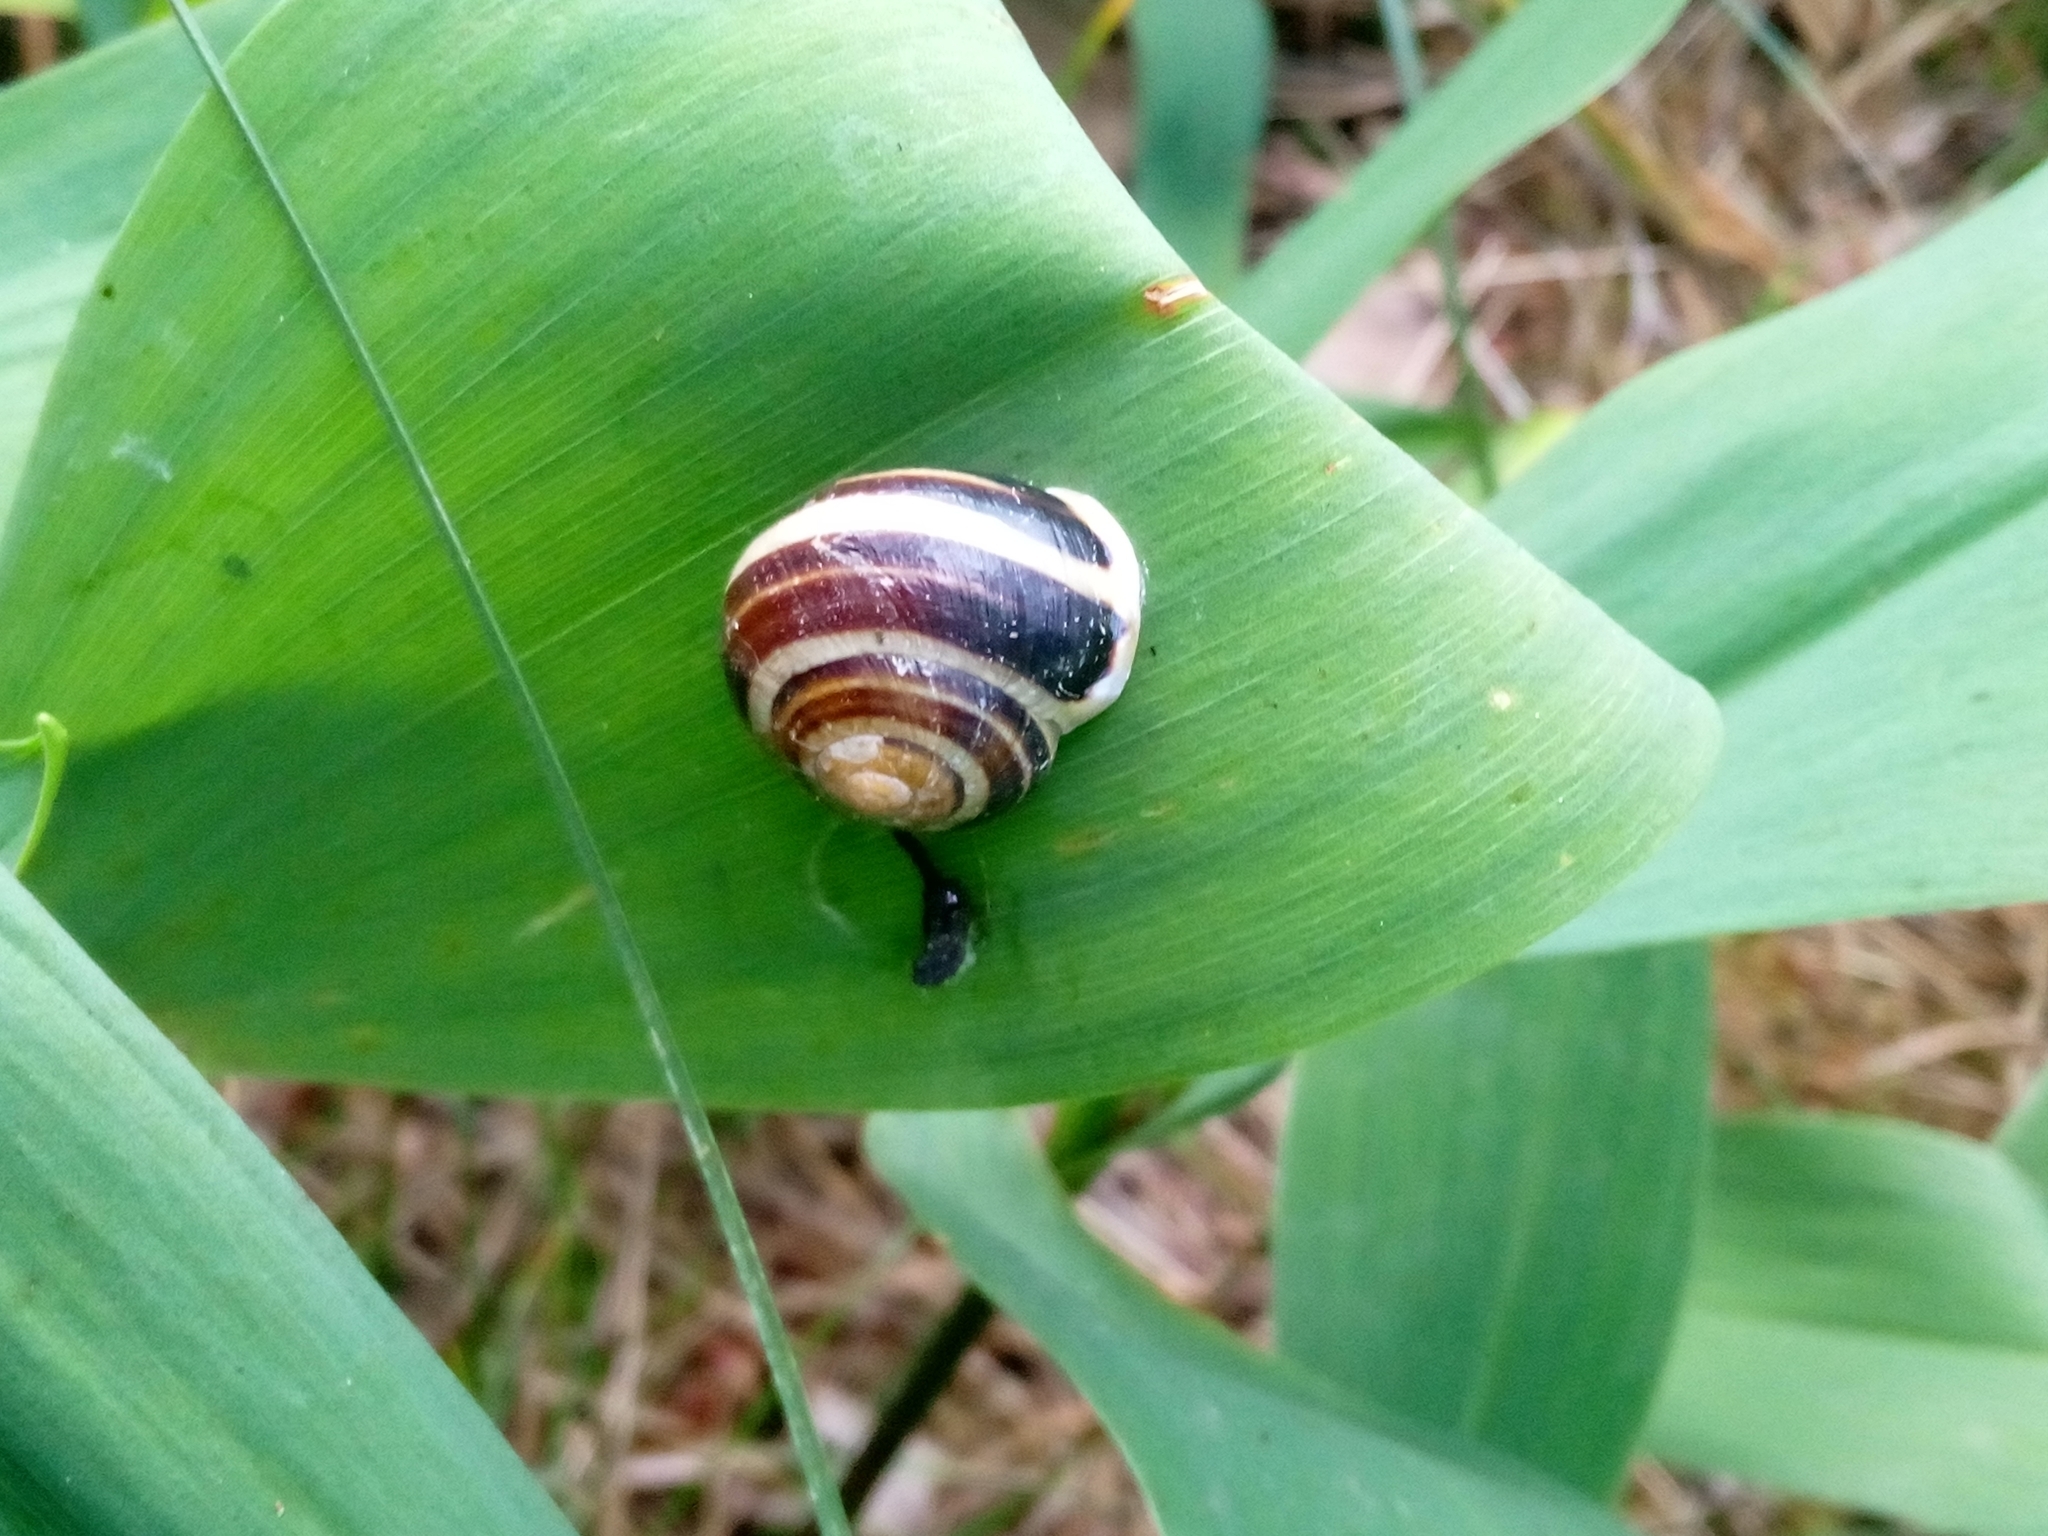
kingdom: Animalia
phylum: Mollusca
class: Gastropoda
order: Stylommatophora
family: Helicidae
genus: Cepaea
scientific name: Cepaea hortensis
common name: White-lip gardensnail
